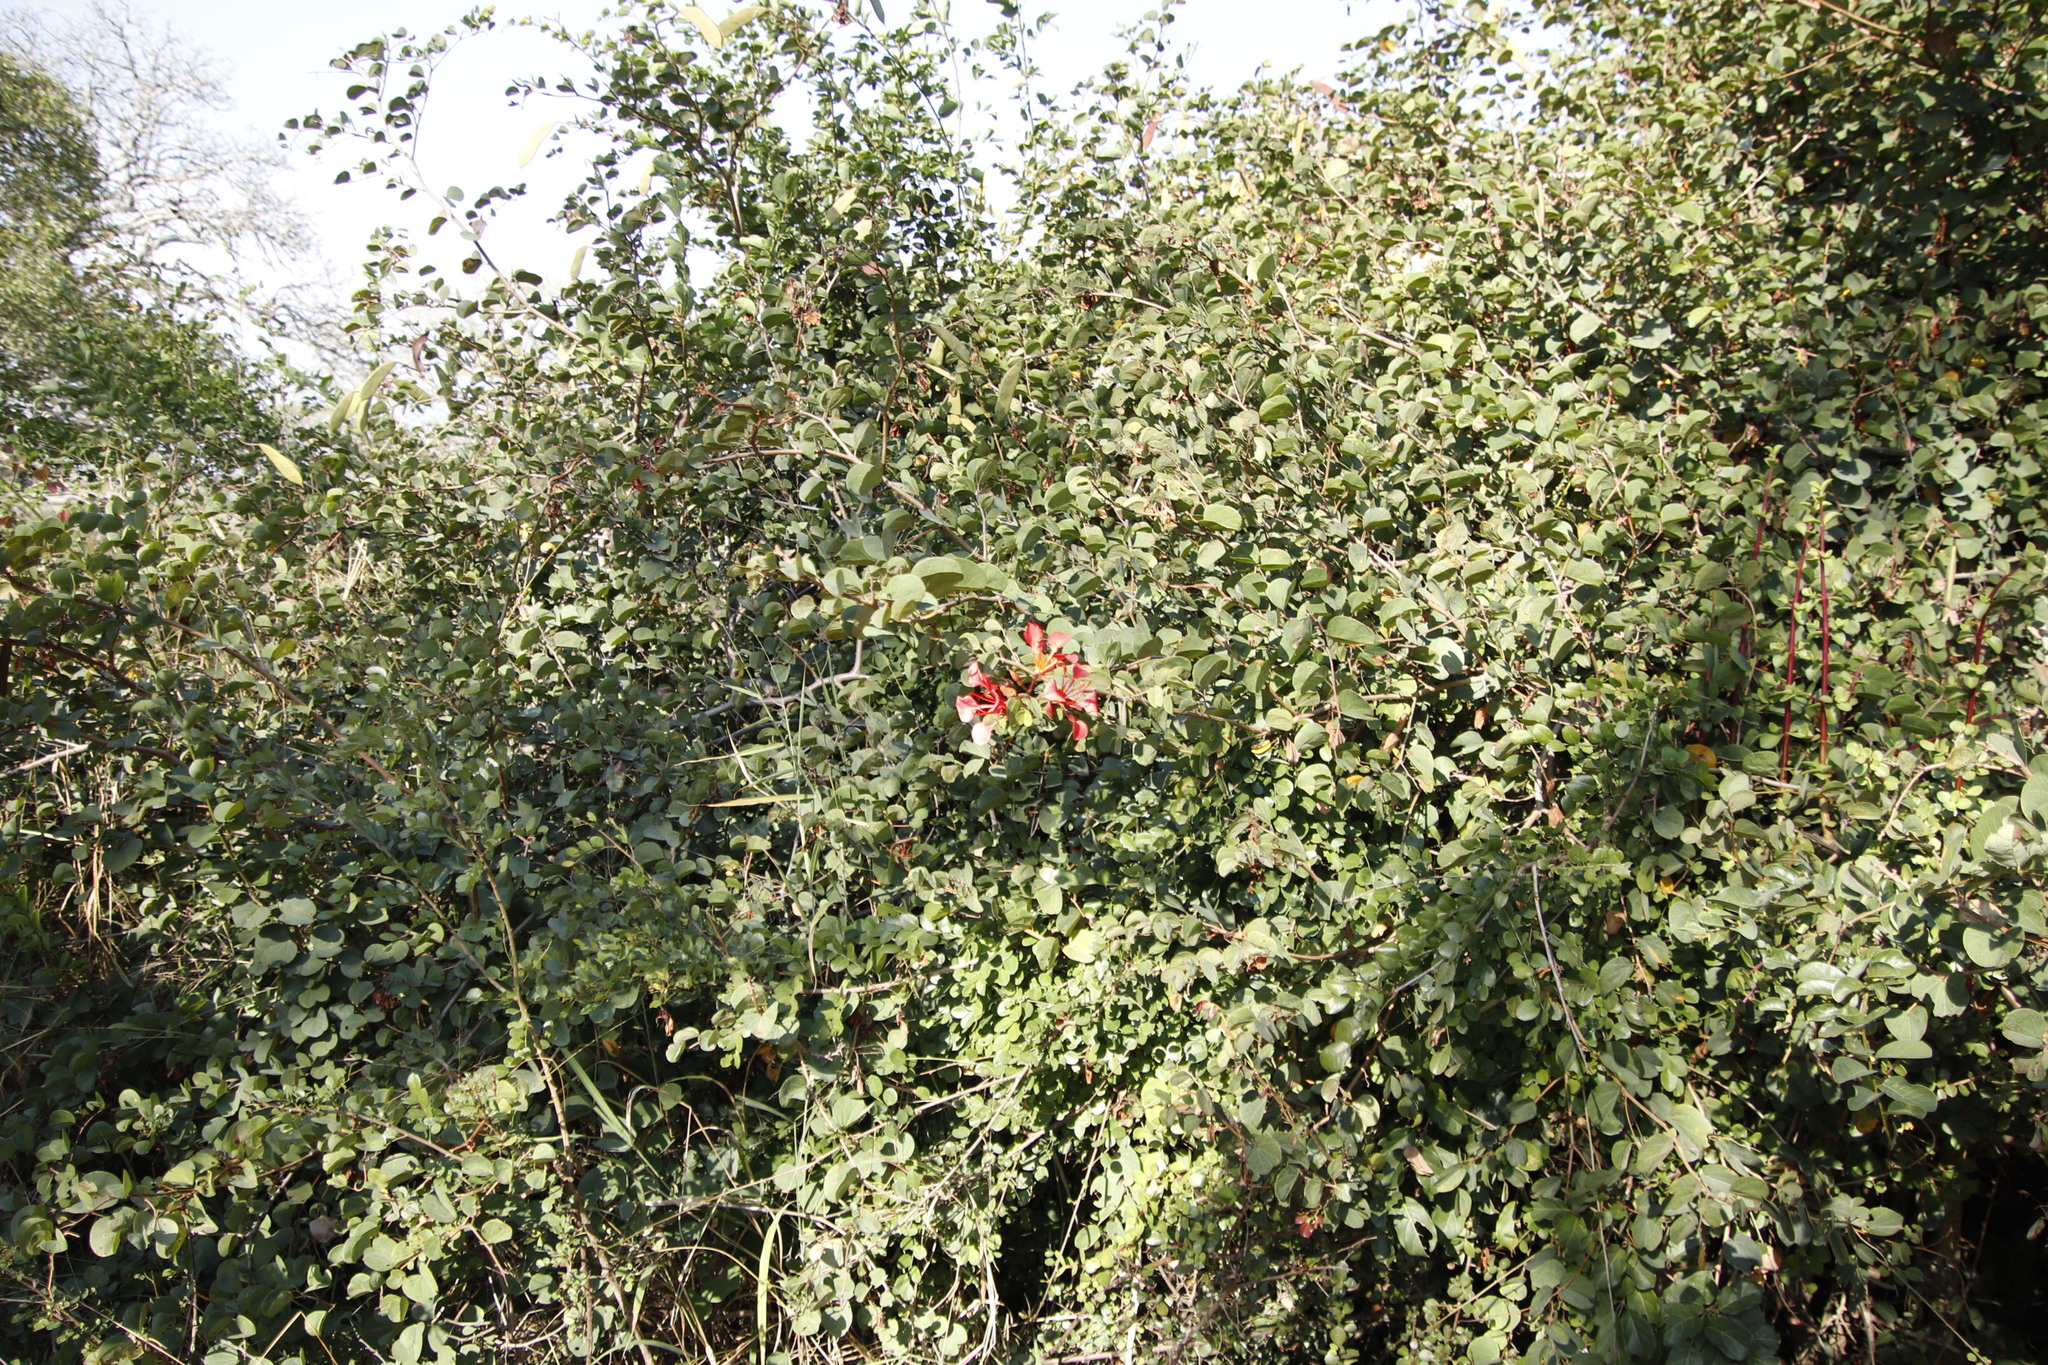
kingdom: Plantae
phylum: Tracheophyta
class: Magnoliopsida
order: Fabales
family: Fabaceae
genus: Bauhinia
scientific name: Bauhinia galpinii
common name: African plume
